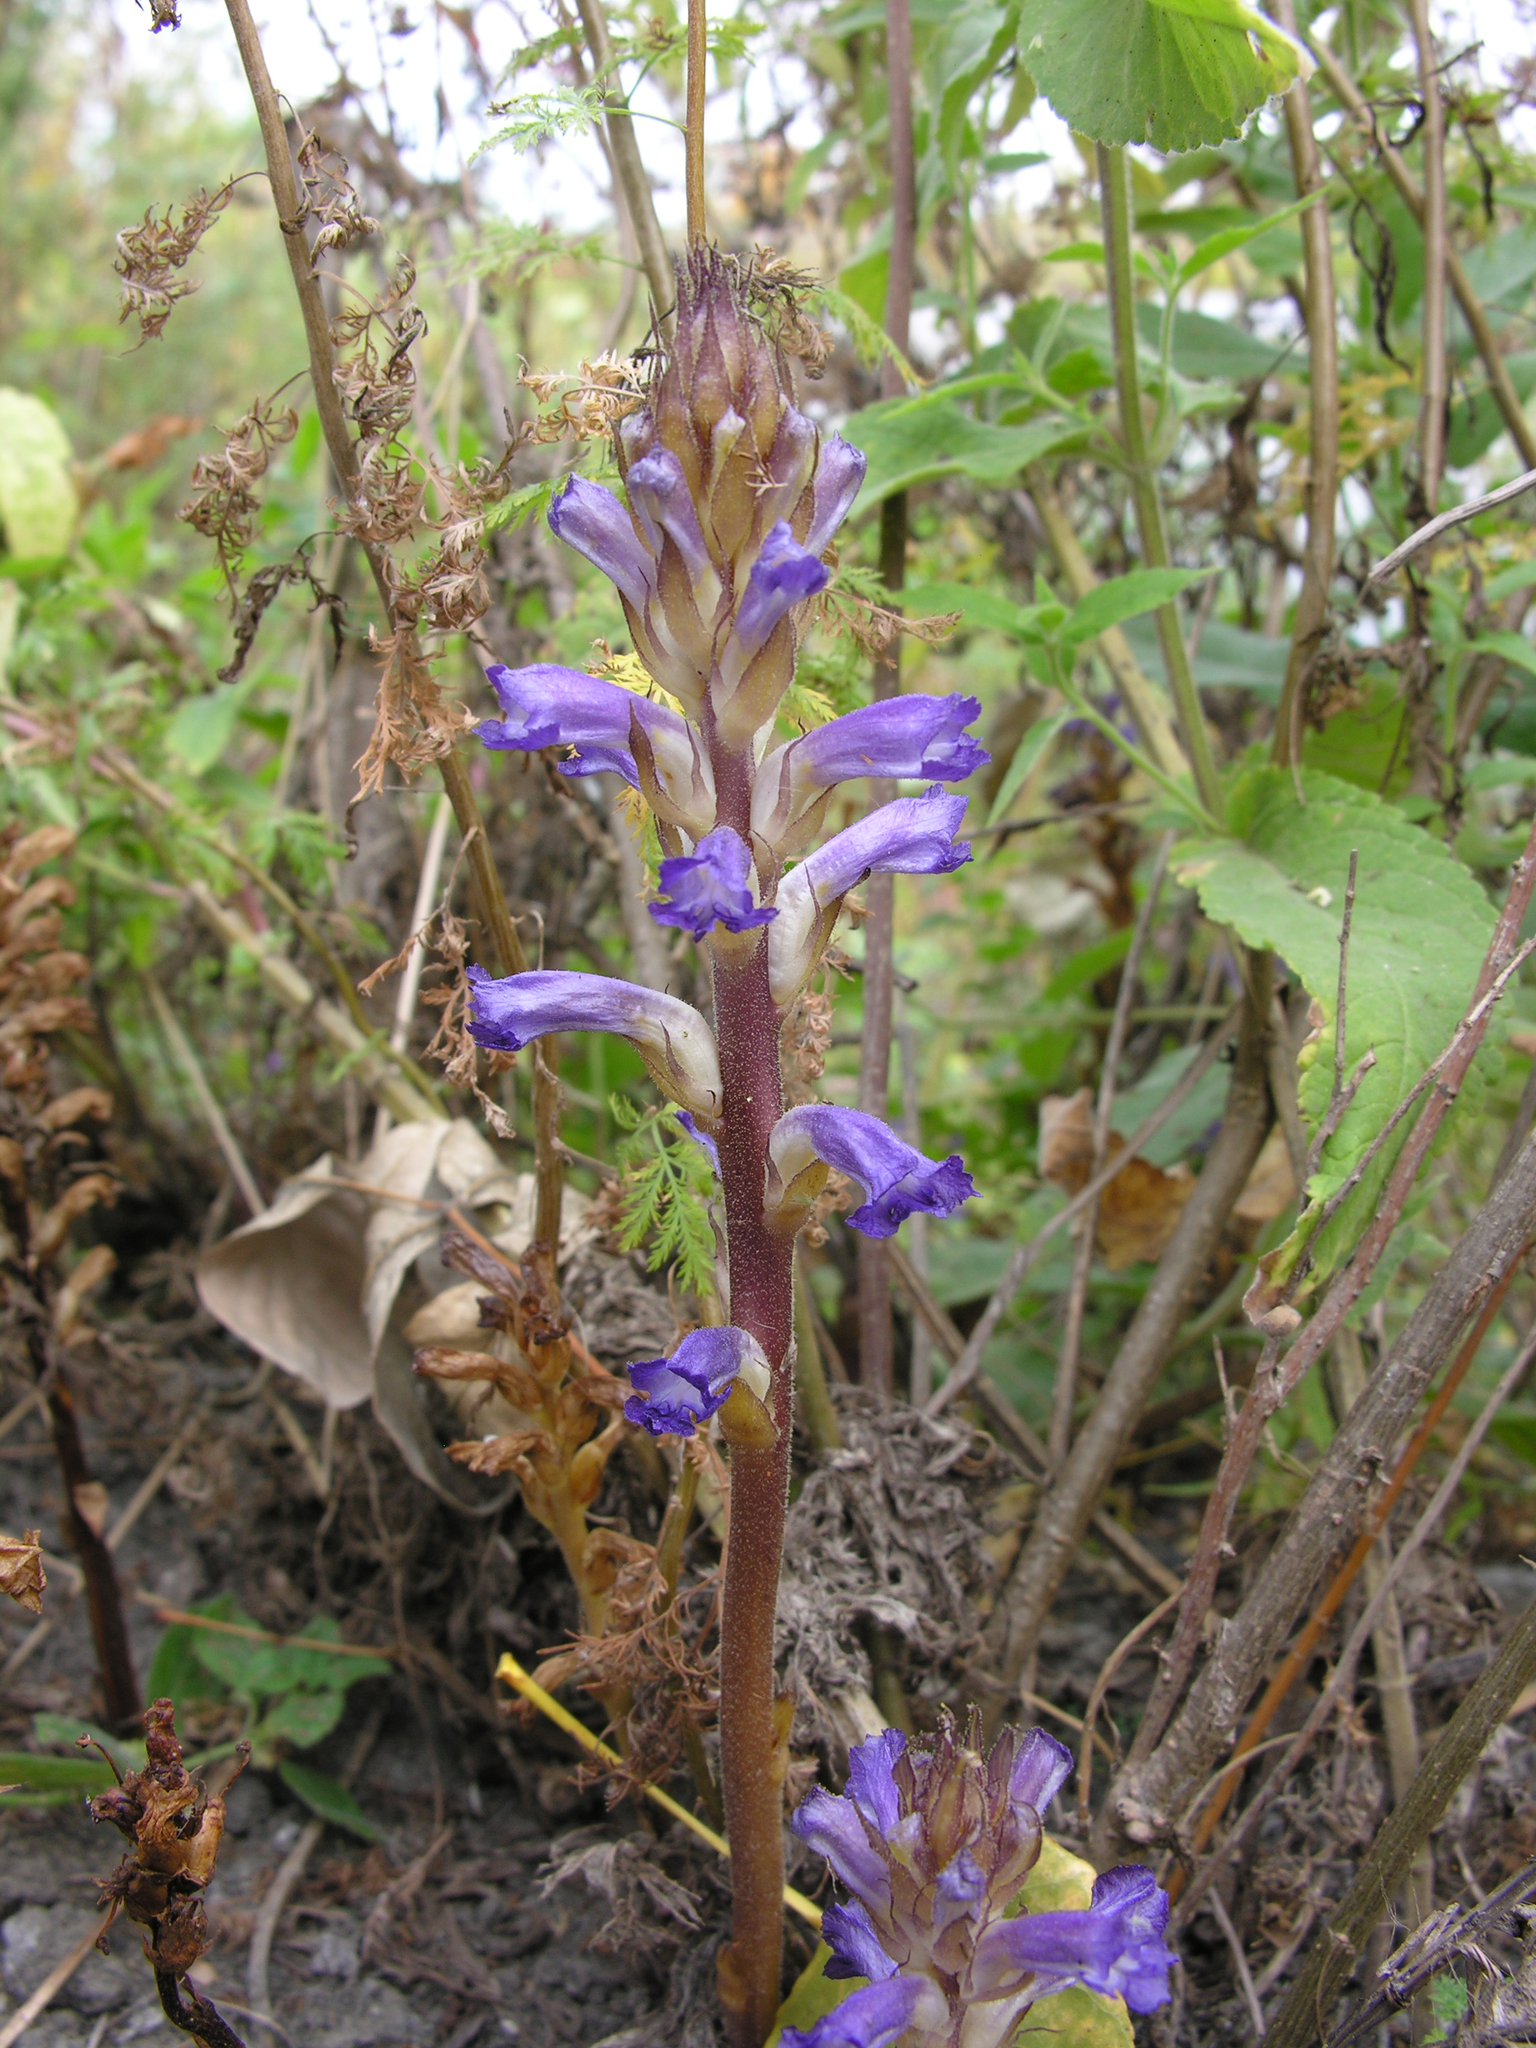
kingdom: Plantae
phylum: Tracheophyta
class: Magnoliopsida
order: Lamiales
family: Orobanchaceae
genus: Orobanche
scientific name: Orobanche cumana
